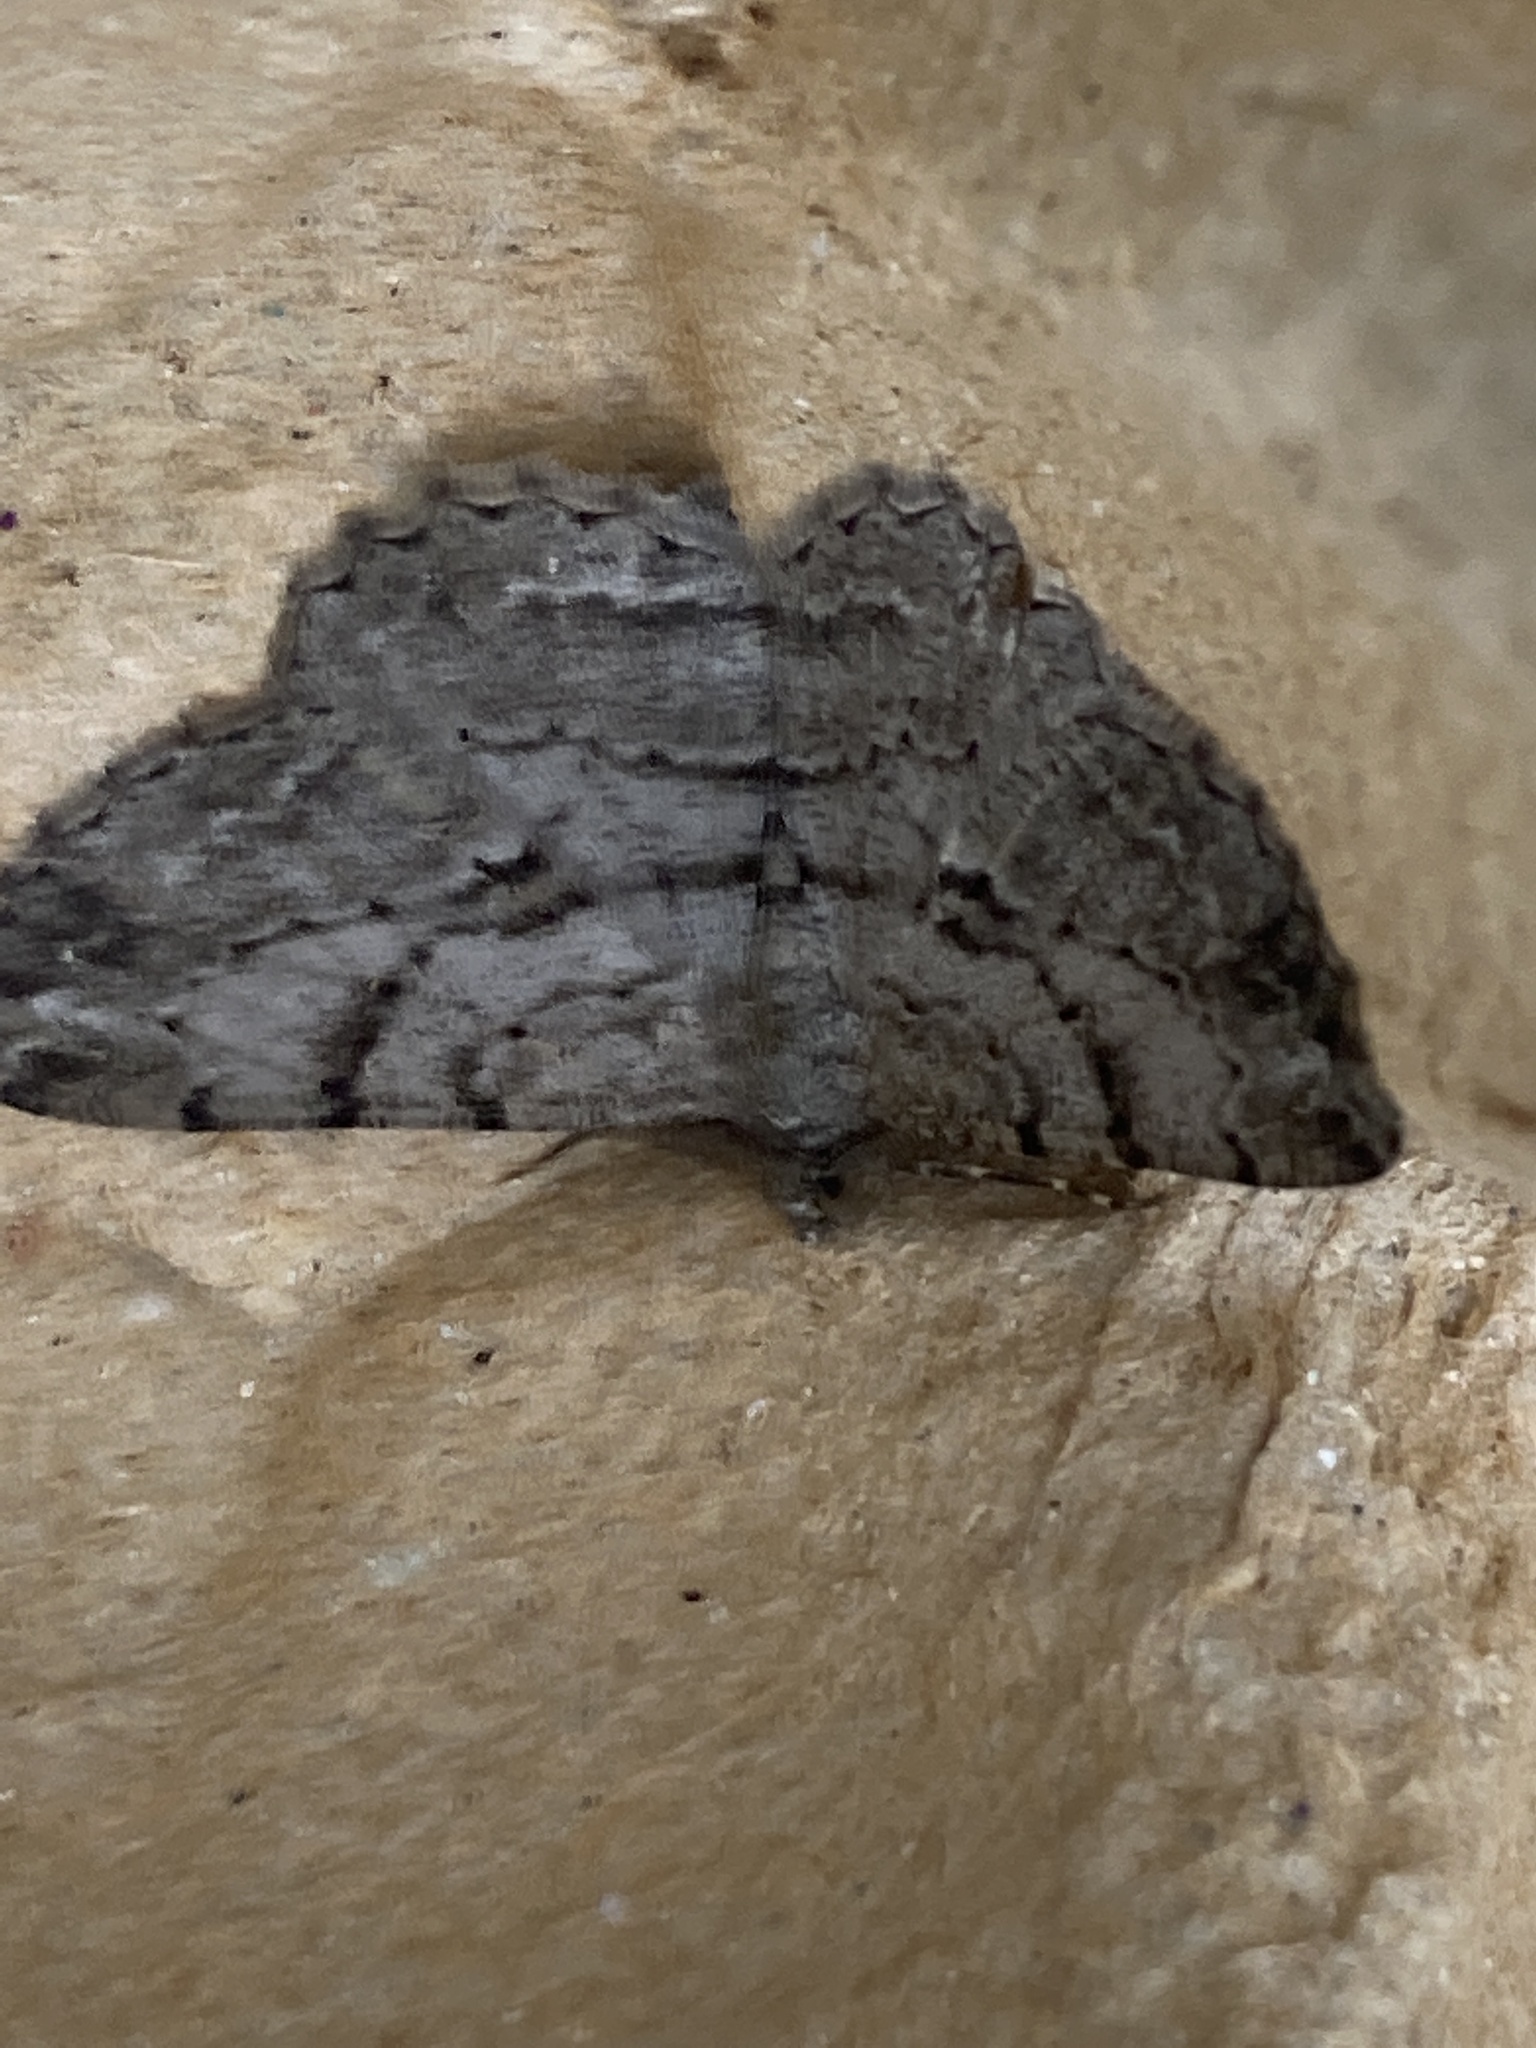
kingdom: Animalia
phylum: Arthropoda
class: Insecta
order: Lepidoptera
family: Geometridae
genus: Peribatodes
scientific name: Peribatodes rhomboidaria
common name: Willow beauty
